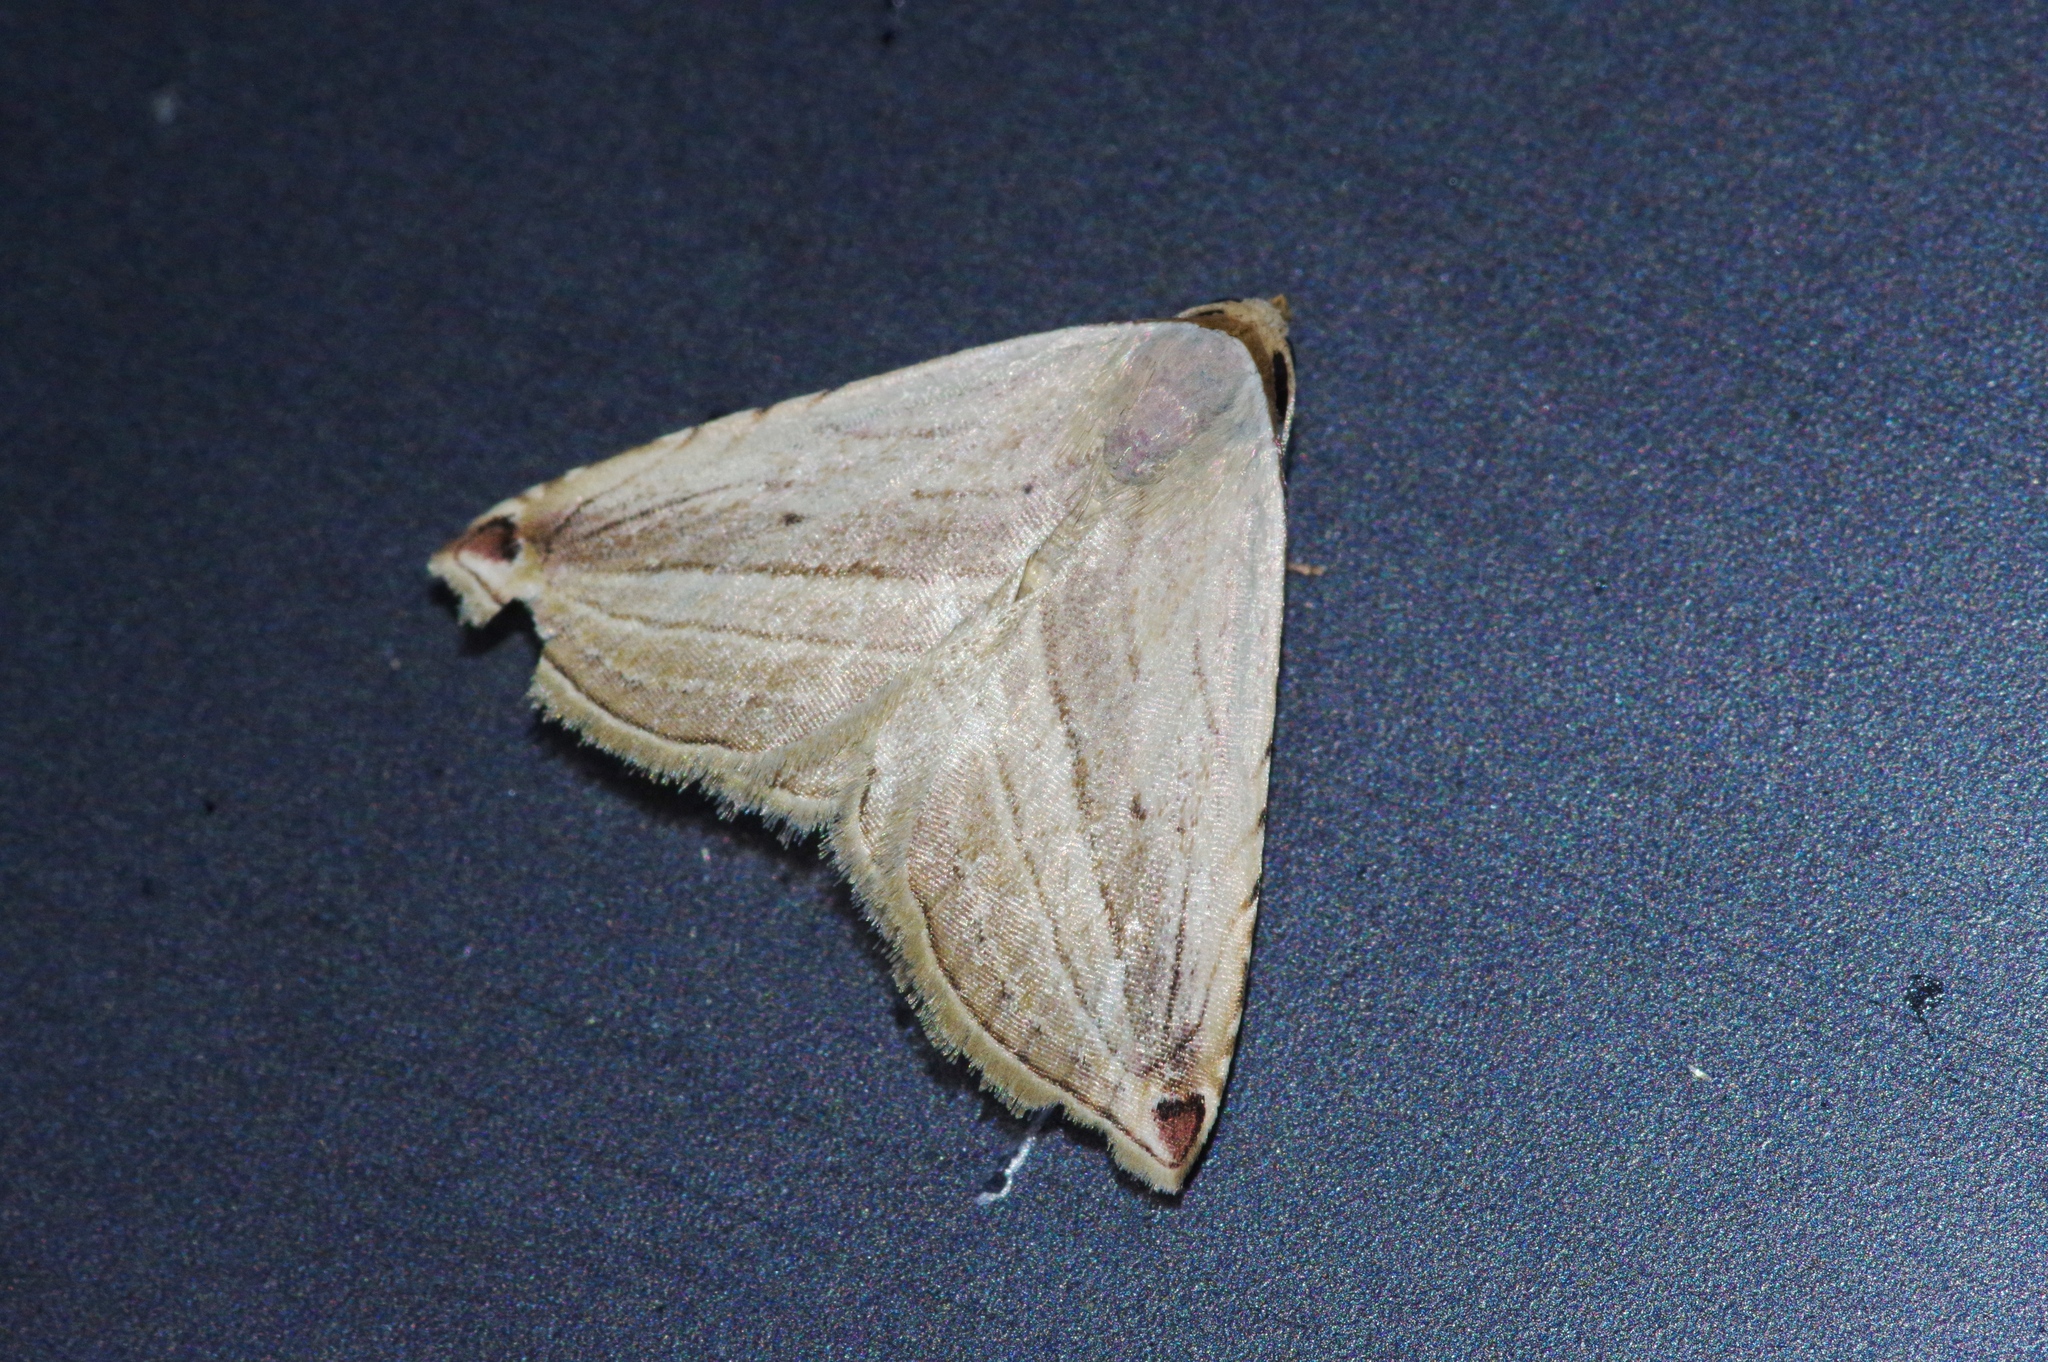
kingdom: Animalia
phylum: Arthropoda
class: Insecta
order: Lepidoptera
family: Noctuidae
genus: Honeyania
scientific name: Honeyania ragusana
